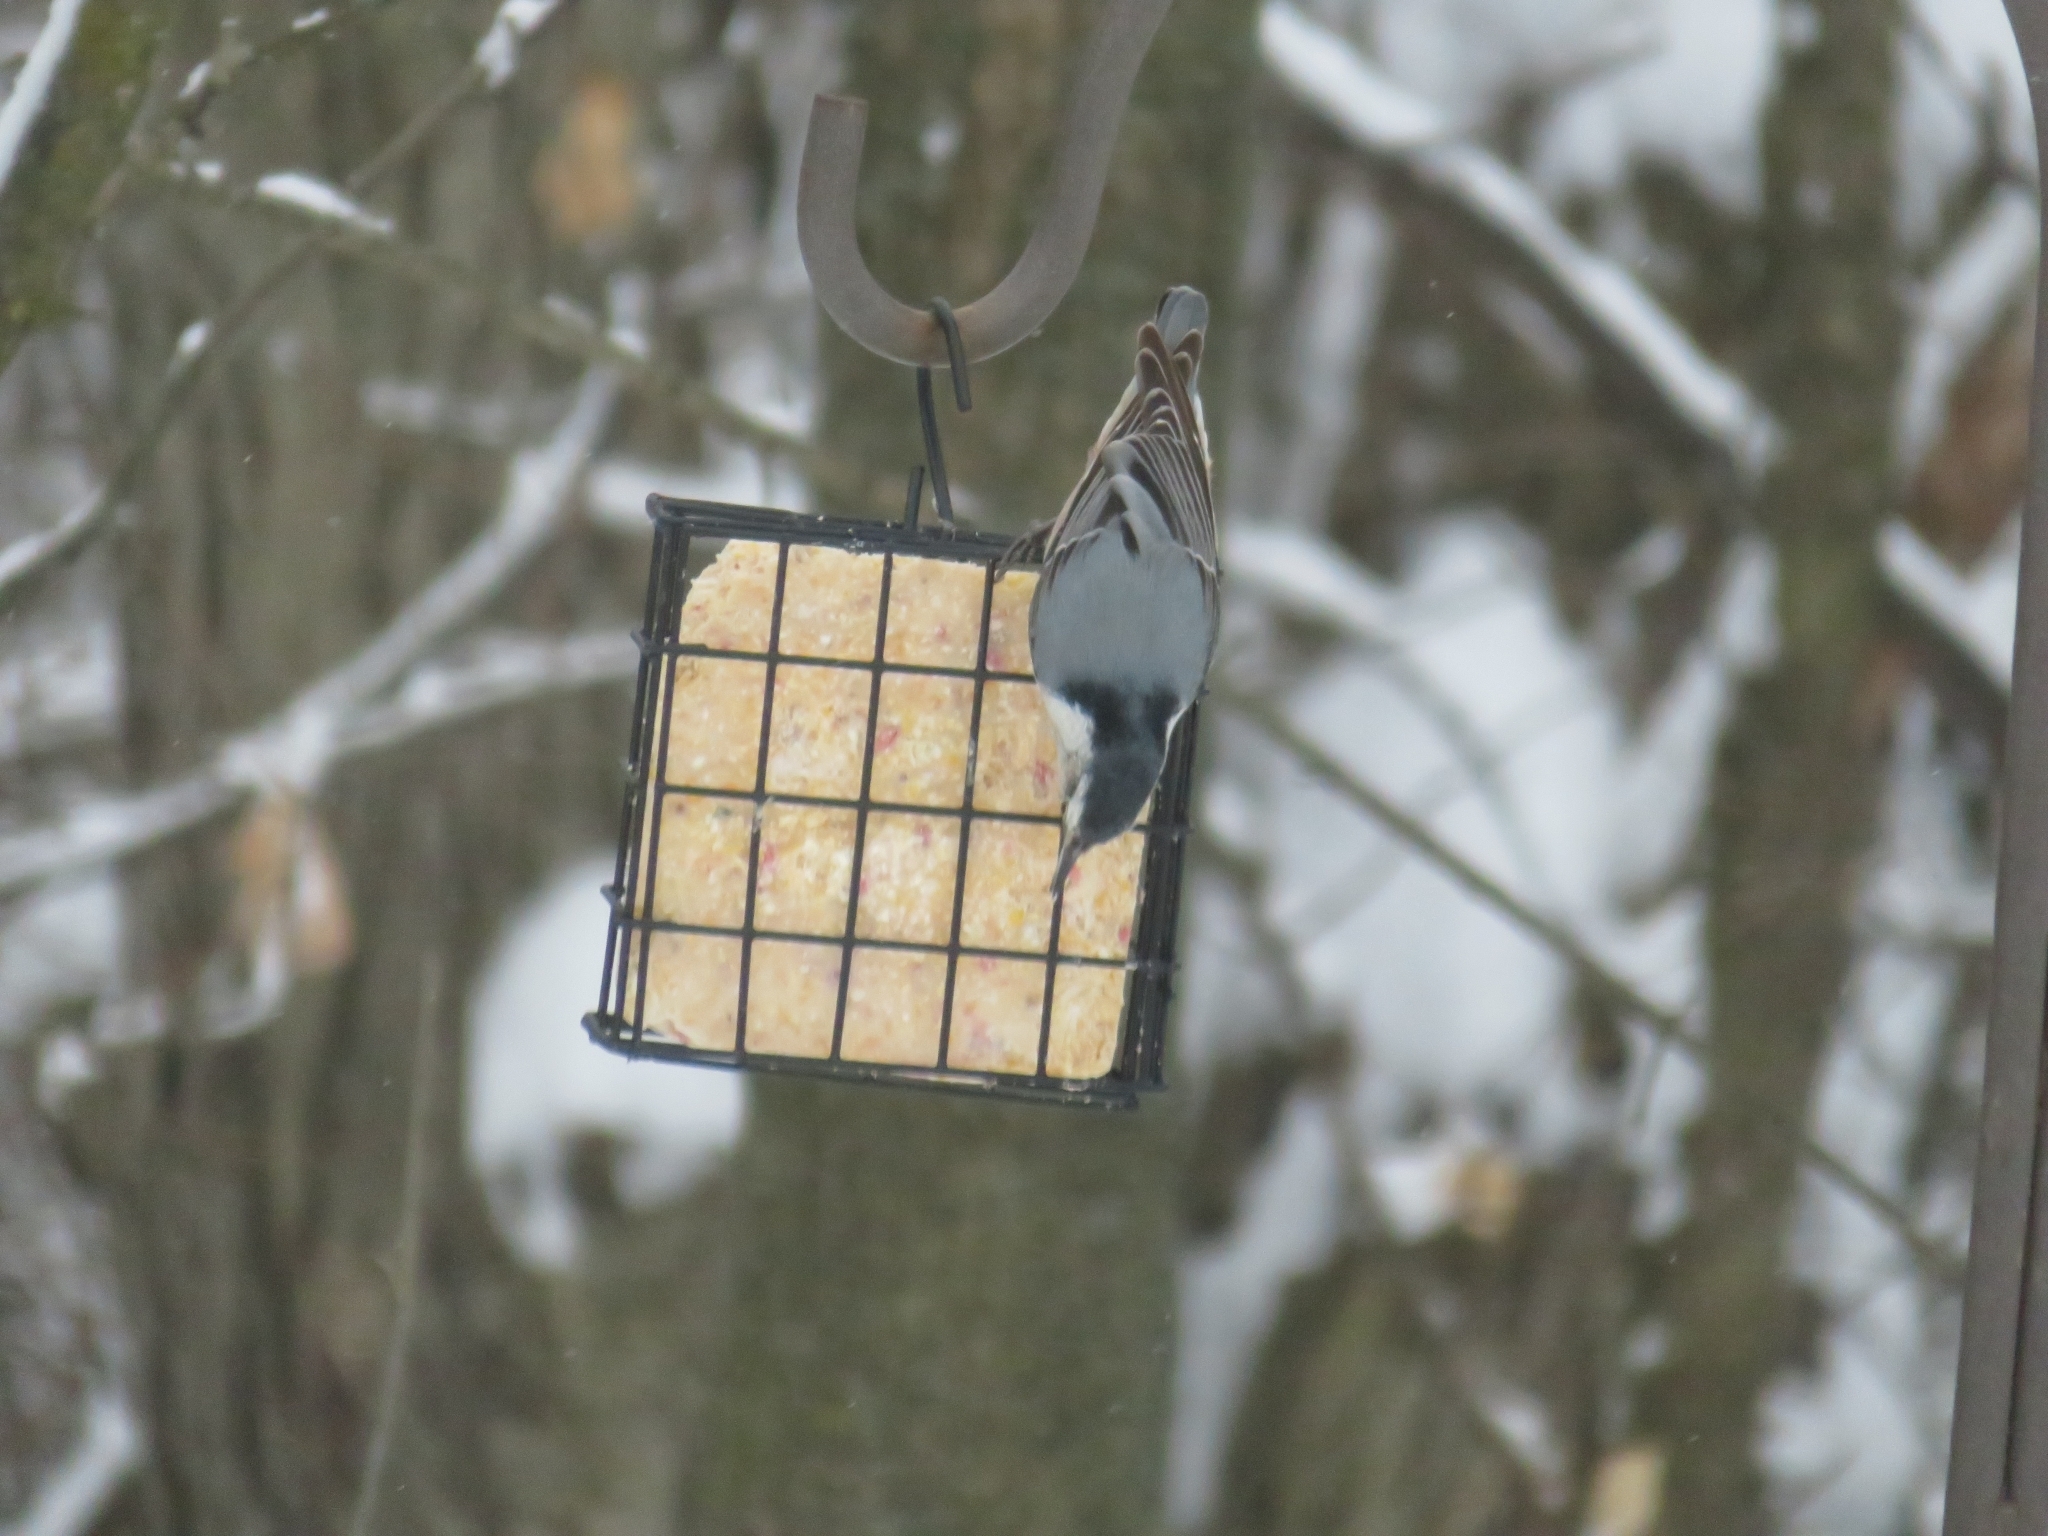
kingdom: Animalia
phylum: Chordata
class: Aves
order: Passeriformes
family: Sittidae
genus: Sitta
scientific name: Sitta carolinensis
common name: White-breasted nuthatch
